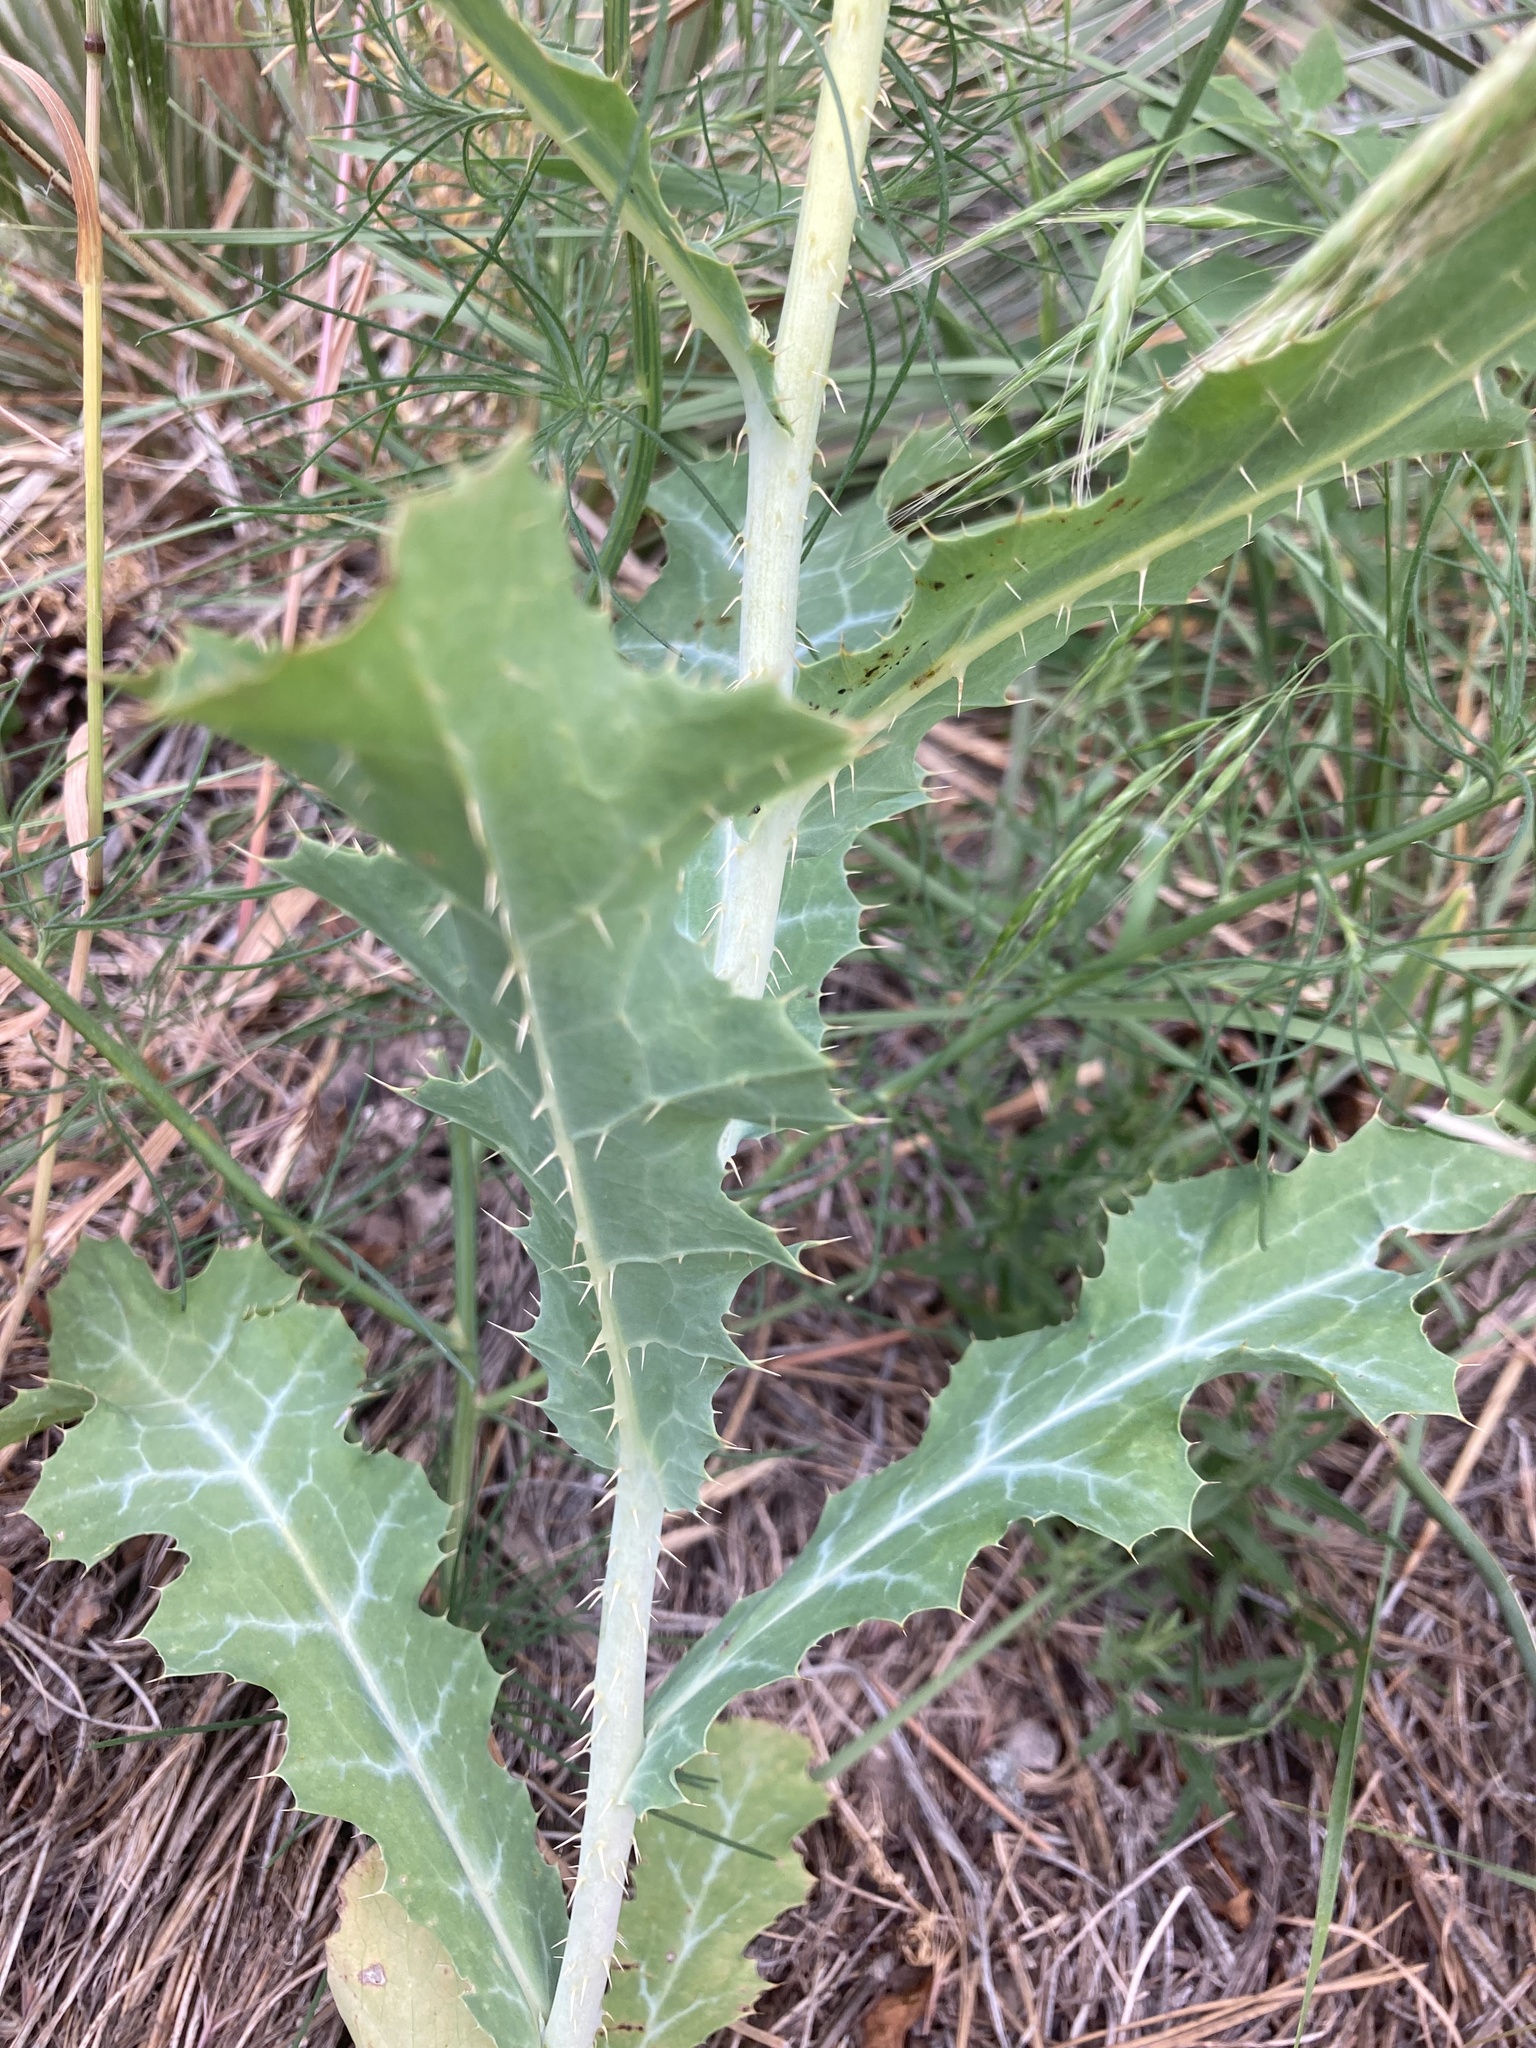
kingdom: Plantae
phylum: Tracheophyta
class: Magnoliopsida
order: Ranunculales
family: Papaveraceae
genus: Argemone
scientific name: Argemone polyanthemos
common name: Plains prickly-poppy
